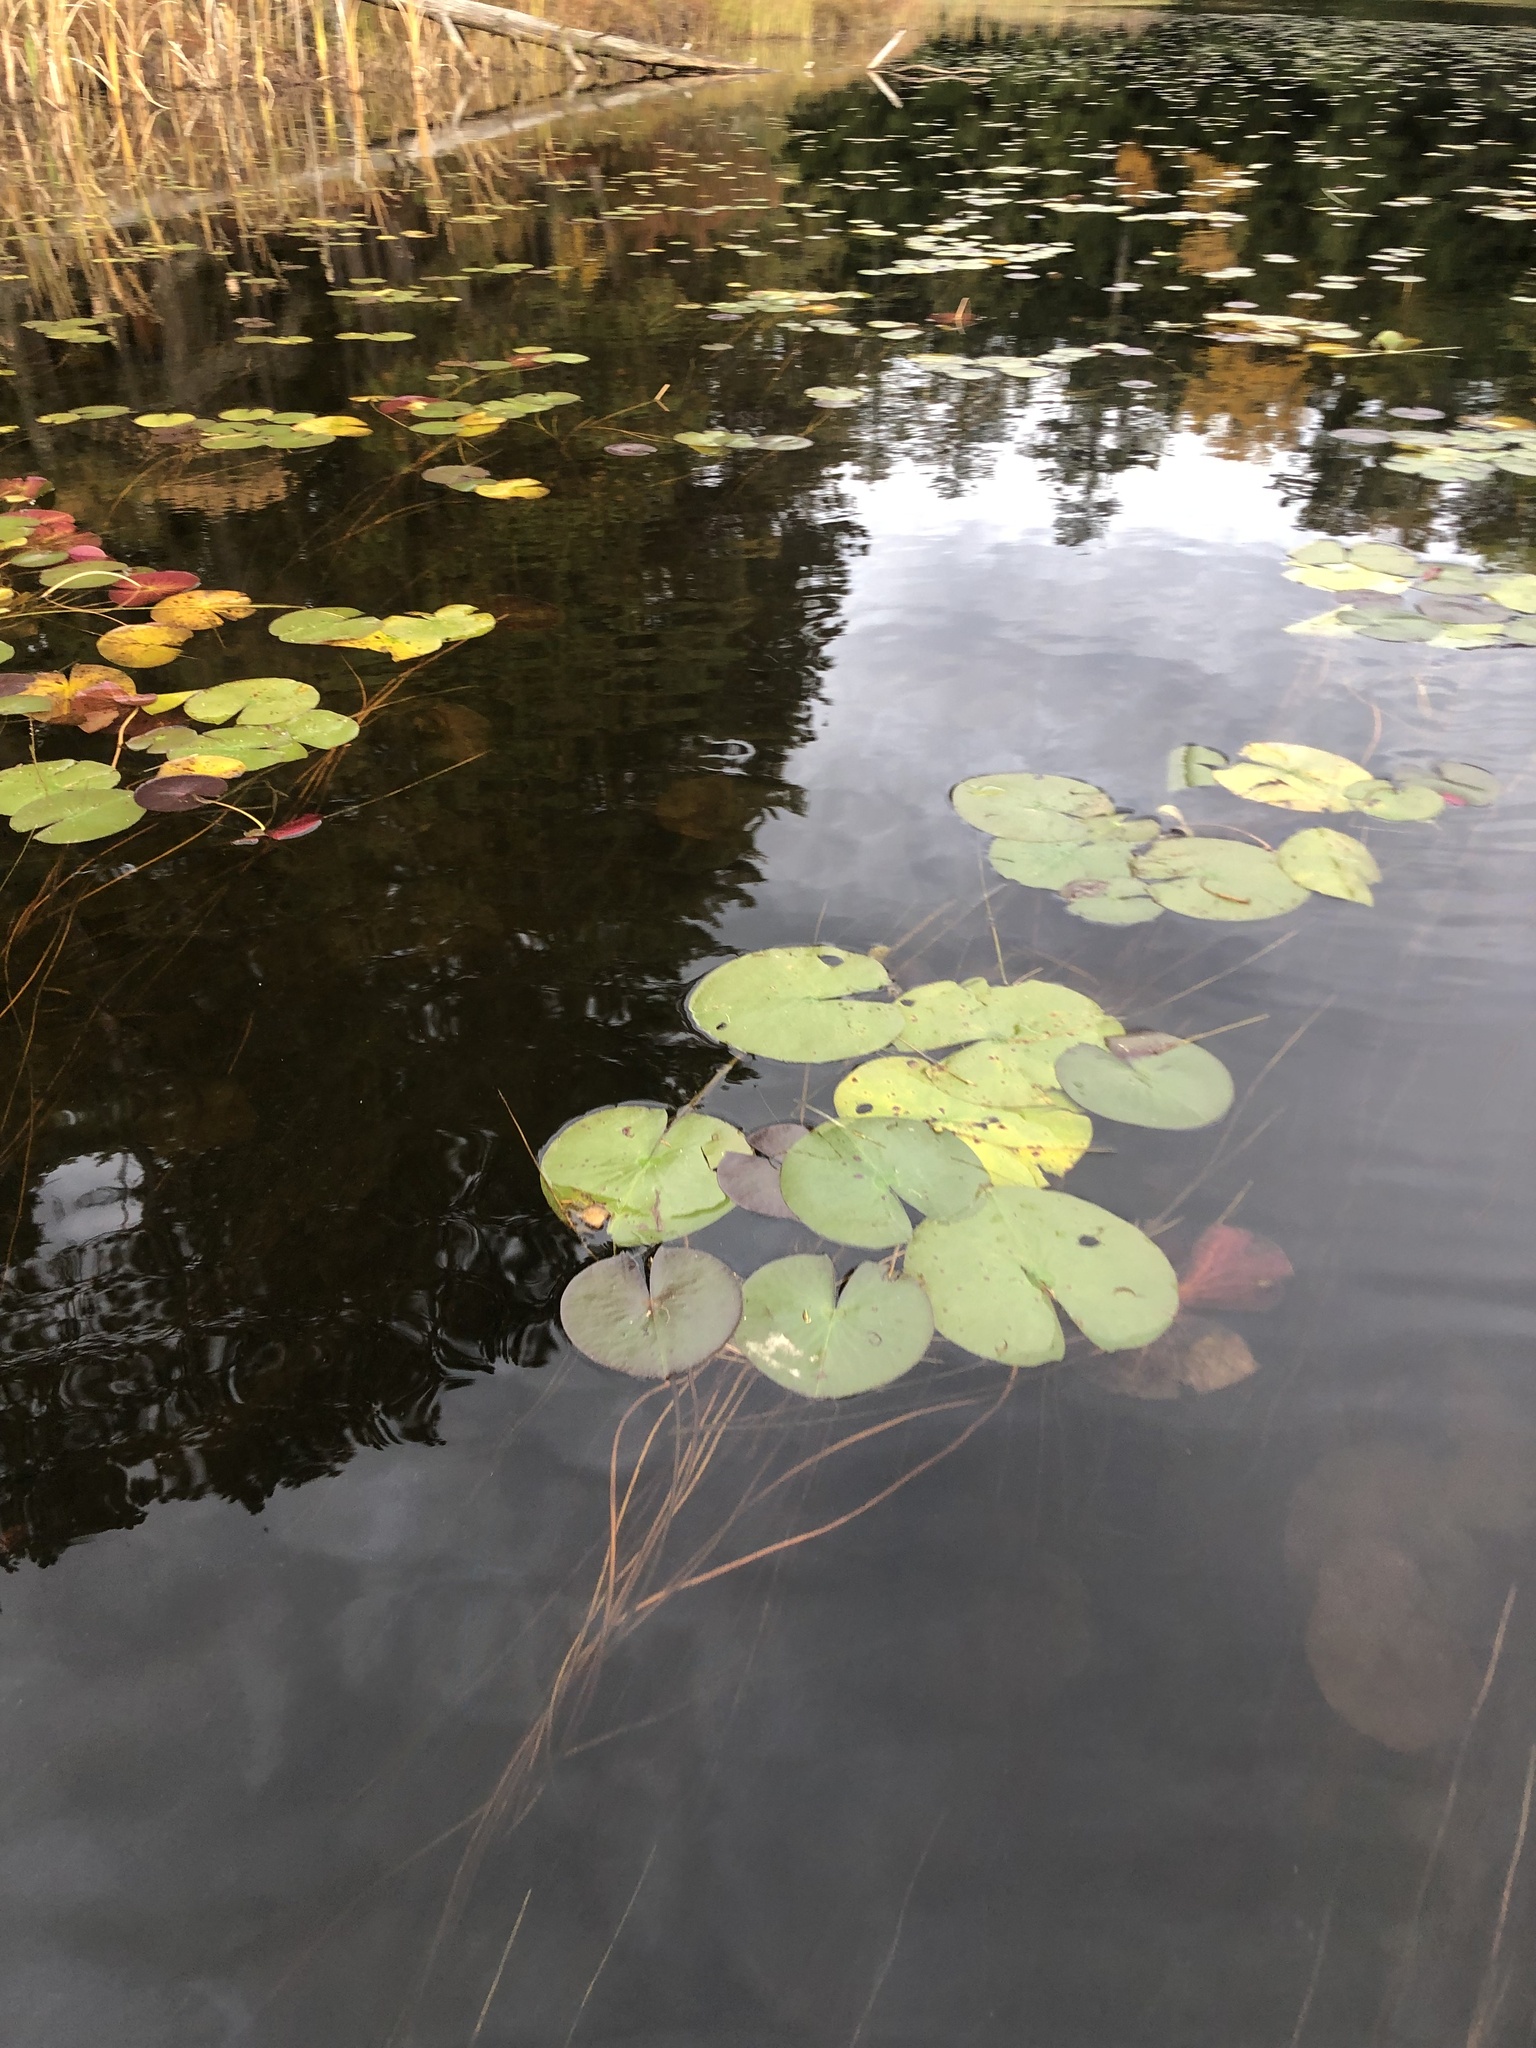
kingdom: Plantae
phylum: Tracheophyta
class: Magnoliopsida
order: Nymphaeales
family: Nymphaeaceae
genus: Nymphaea
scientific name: Nymphaea odorata
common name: Fragrant water-lily
